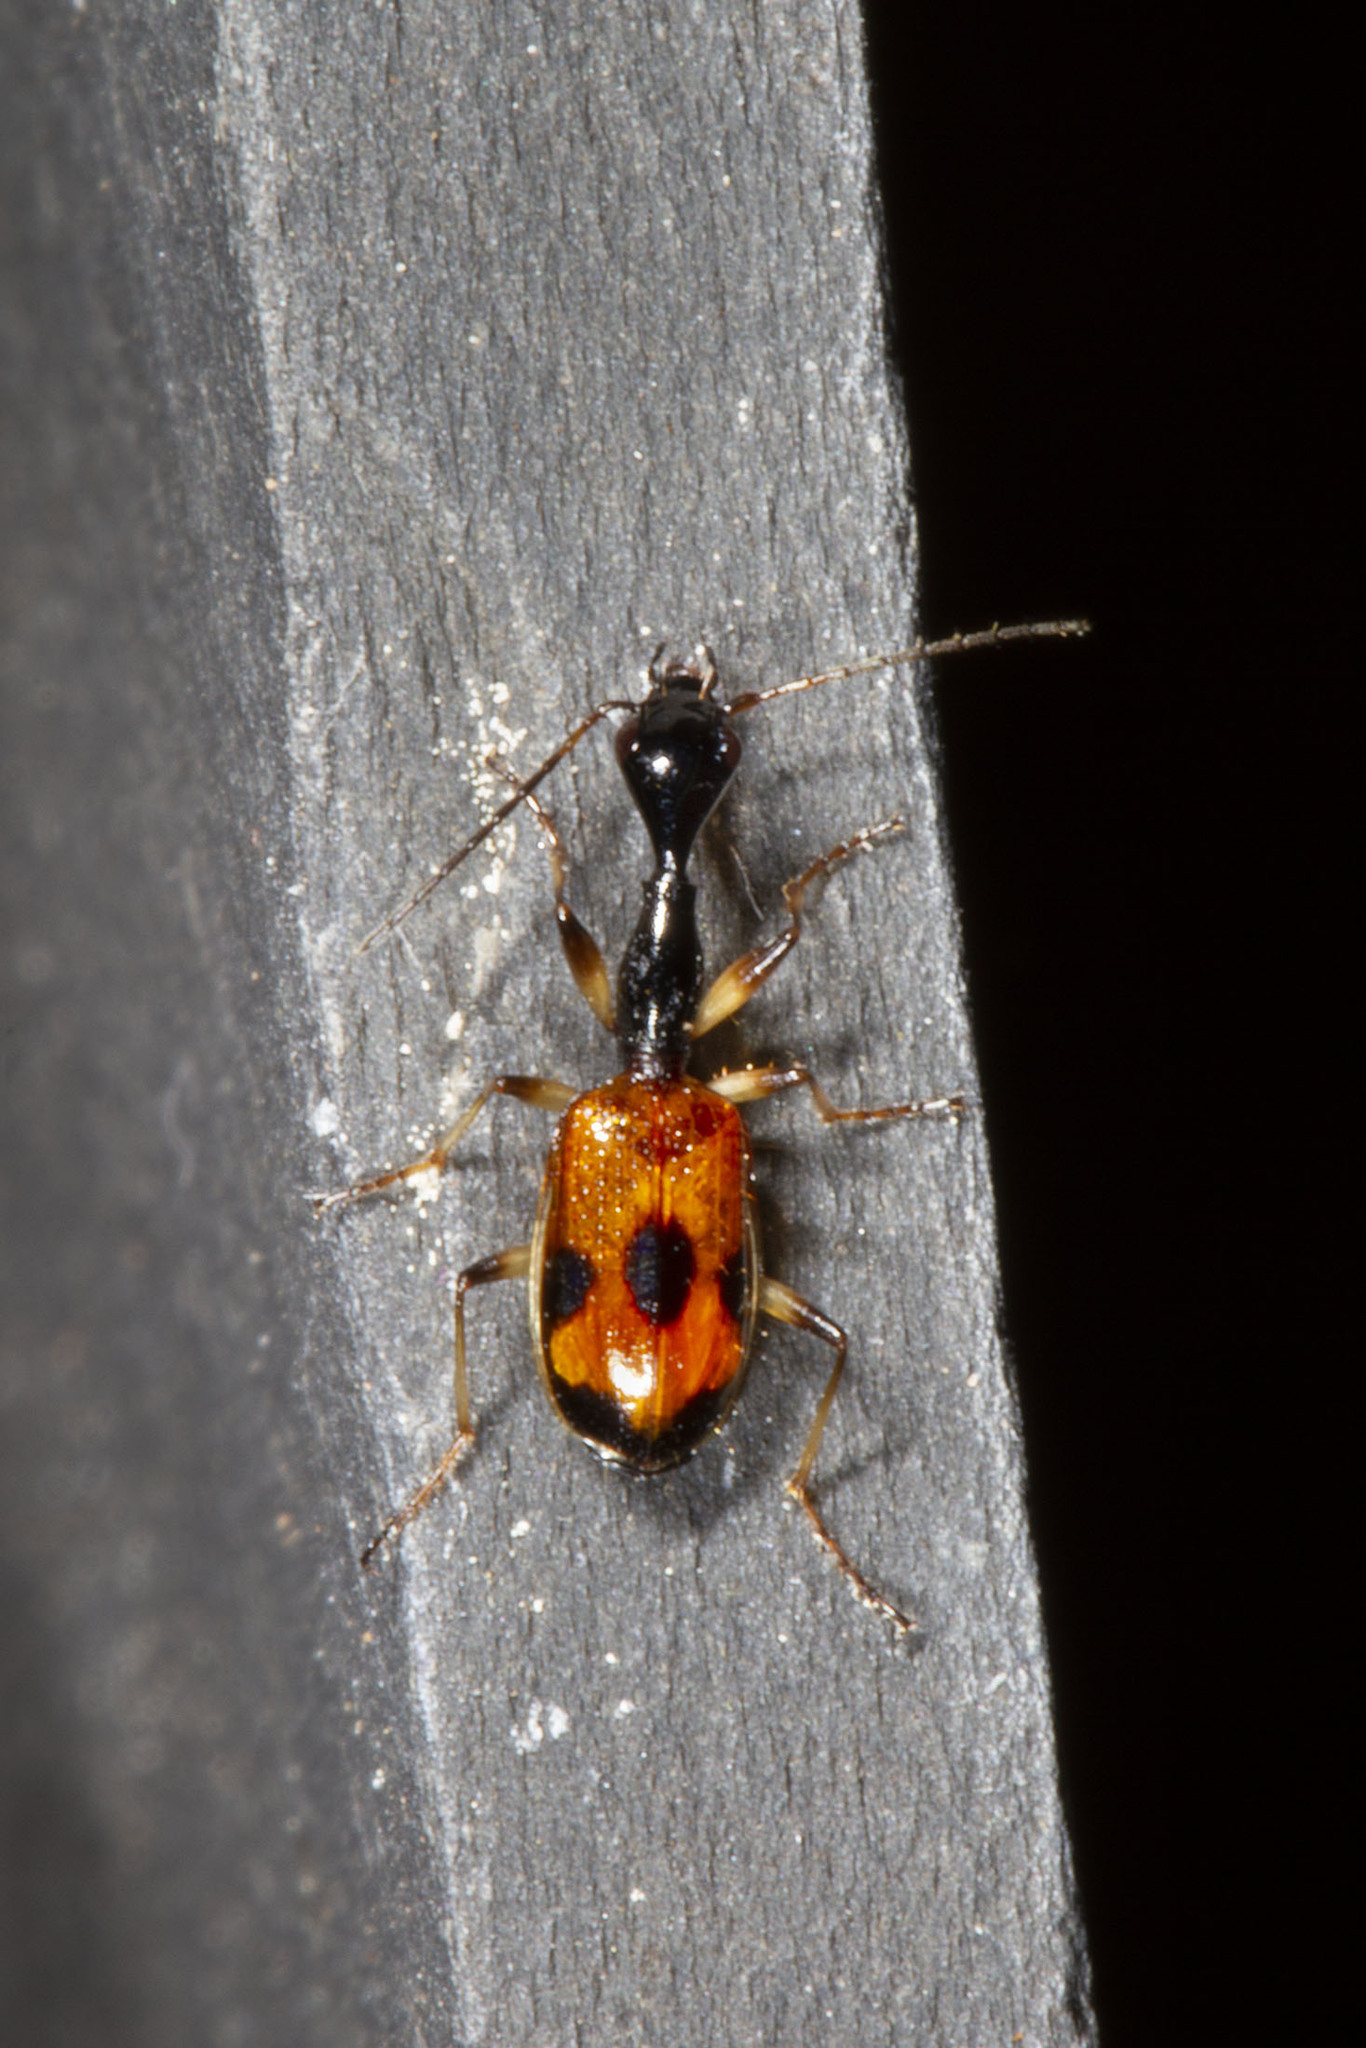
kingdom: Animalia
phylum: Arthropoda
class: Insecta
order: Coleoptera
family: Carabidae
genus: Colliuris
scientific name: Colliuris pensylvanica
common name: Long-necked ground beetle
